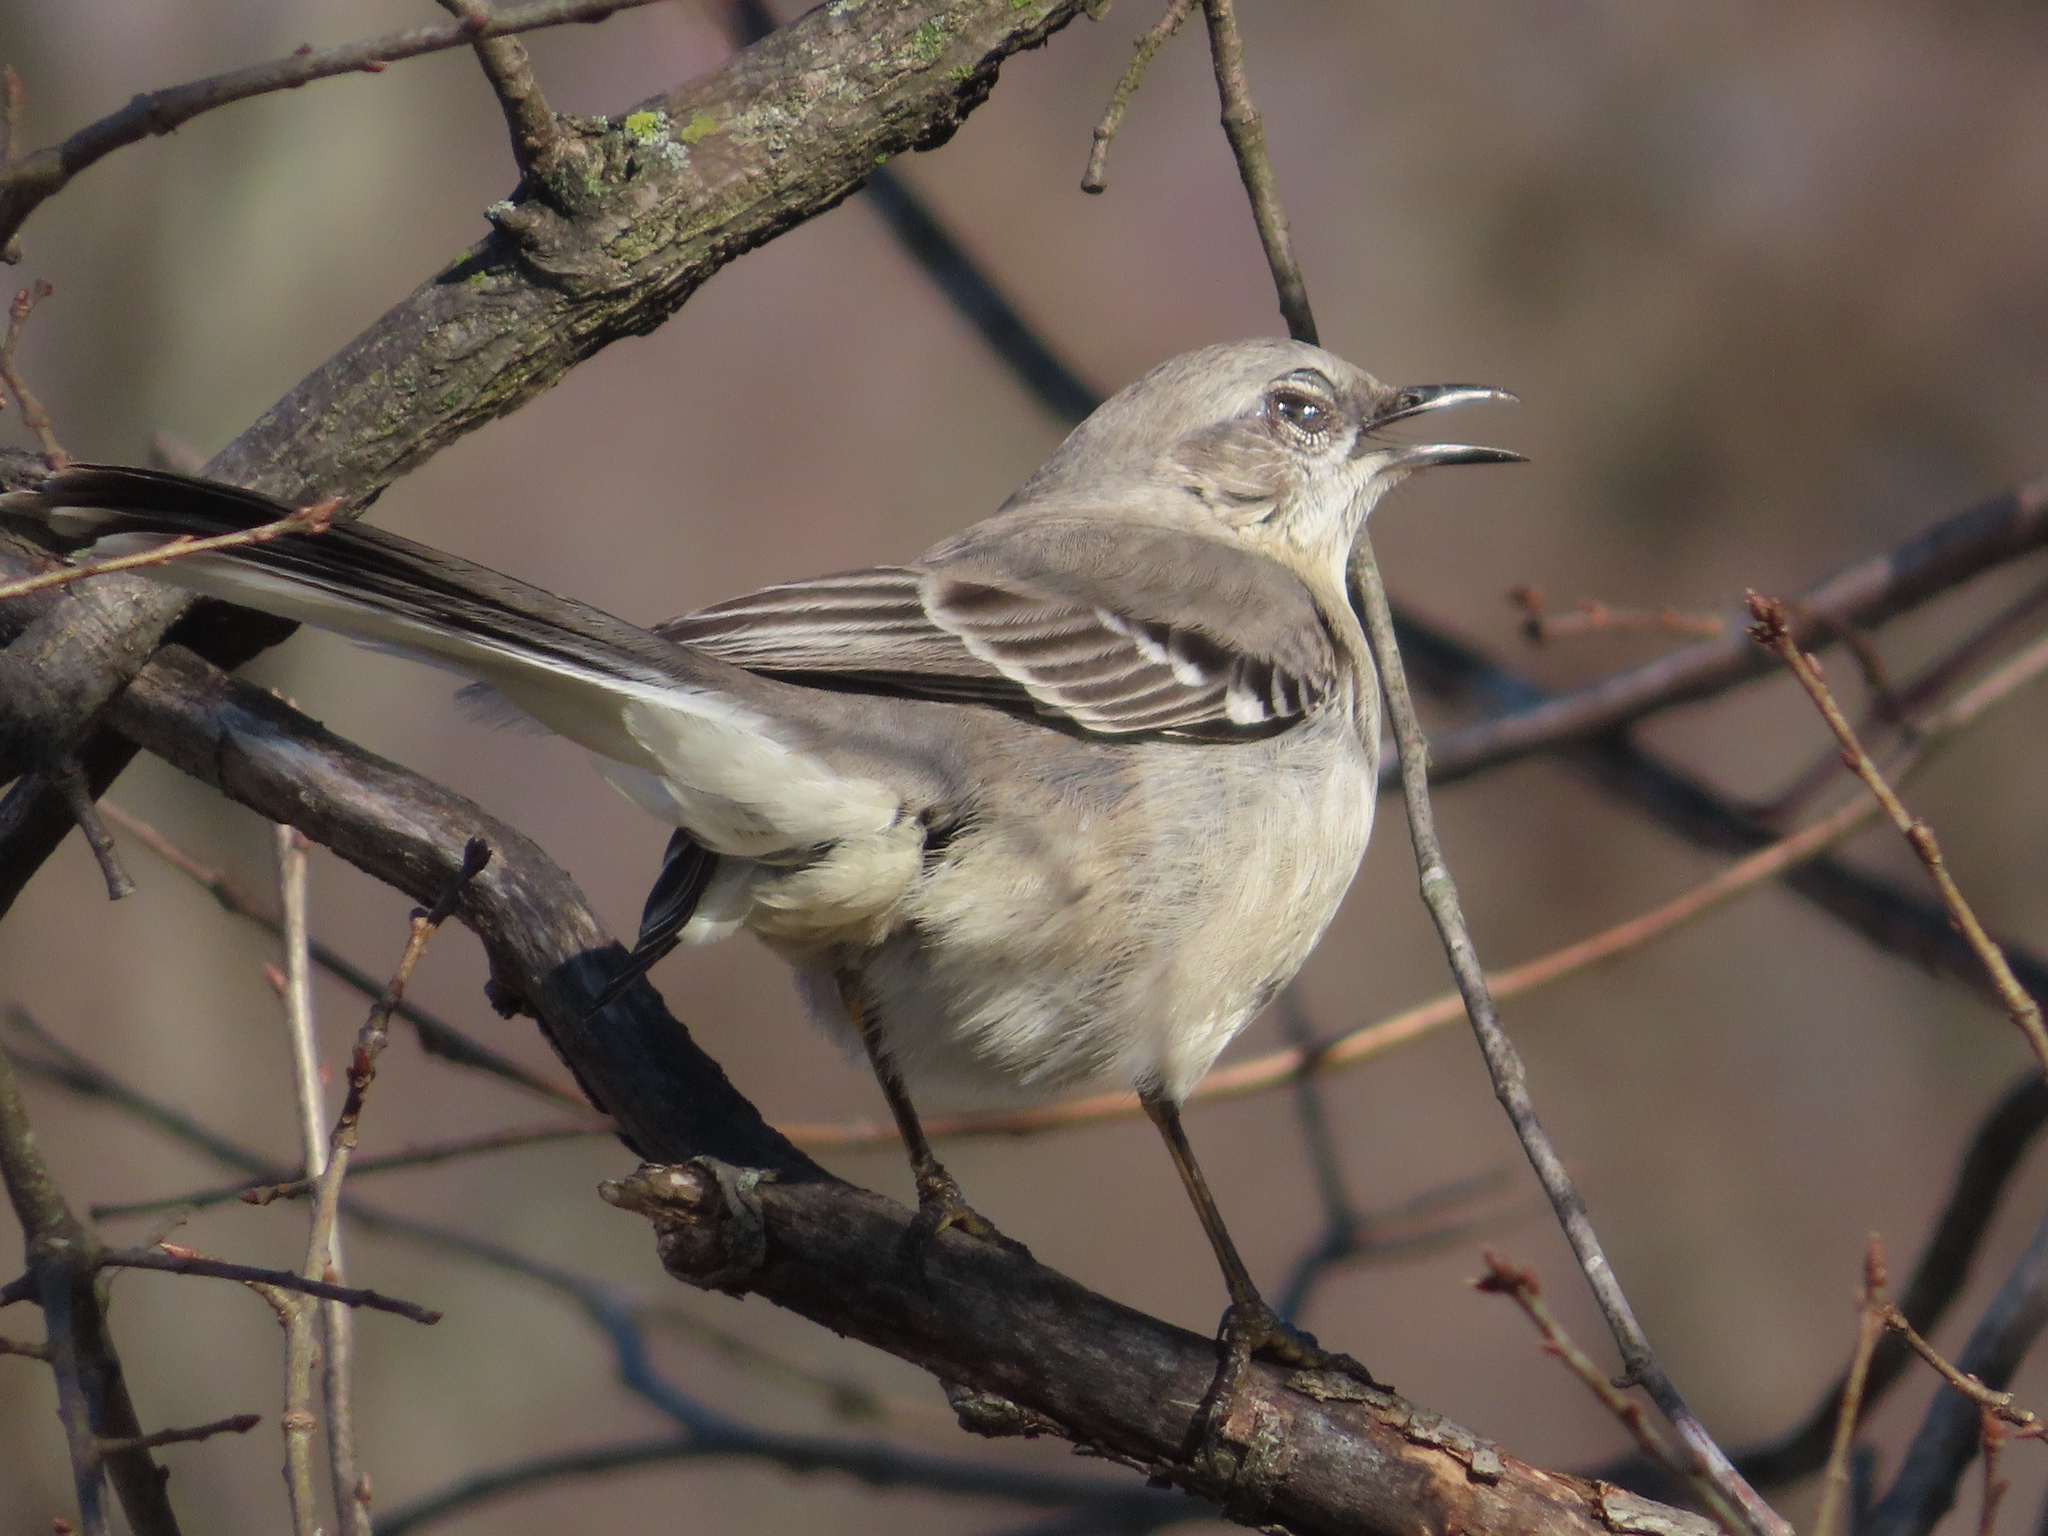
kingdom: Animalia
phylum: Chordata
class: Aves
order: Passeriformes
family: Mimidae
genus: Mimus
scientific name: Mimus polyglottos
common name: Northern mockingbird
